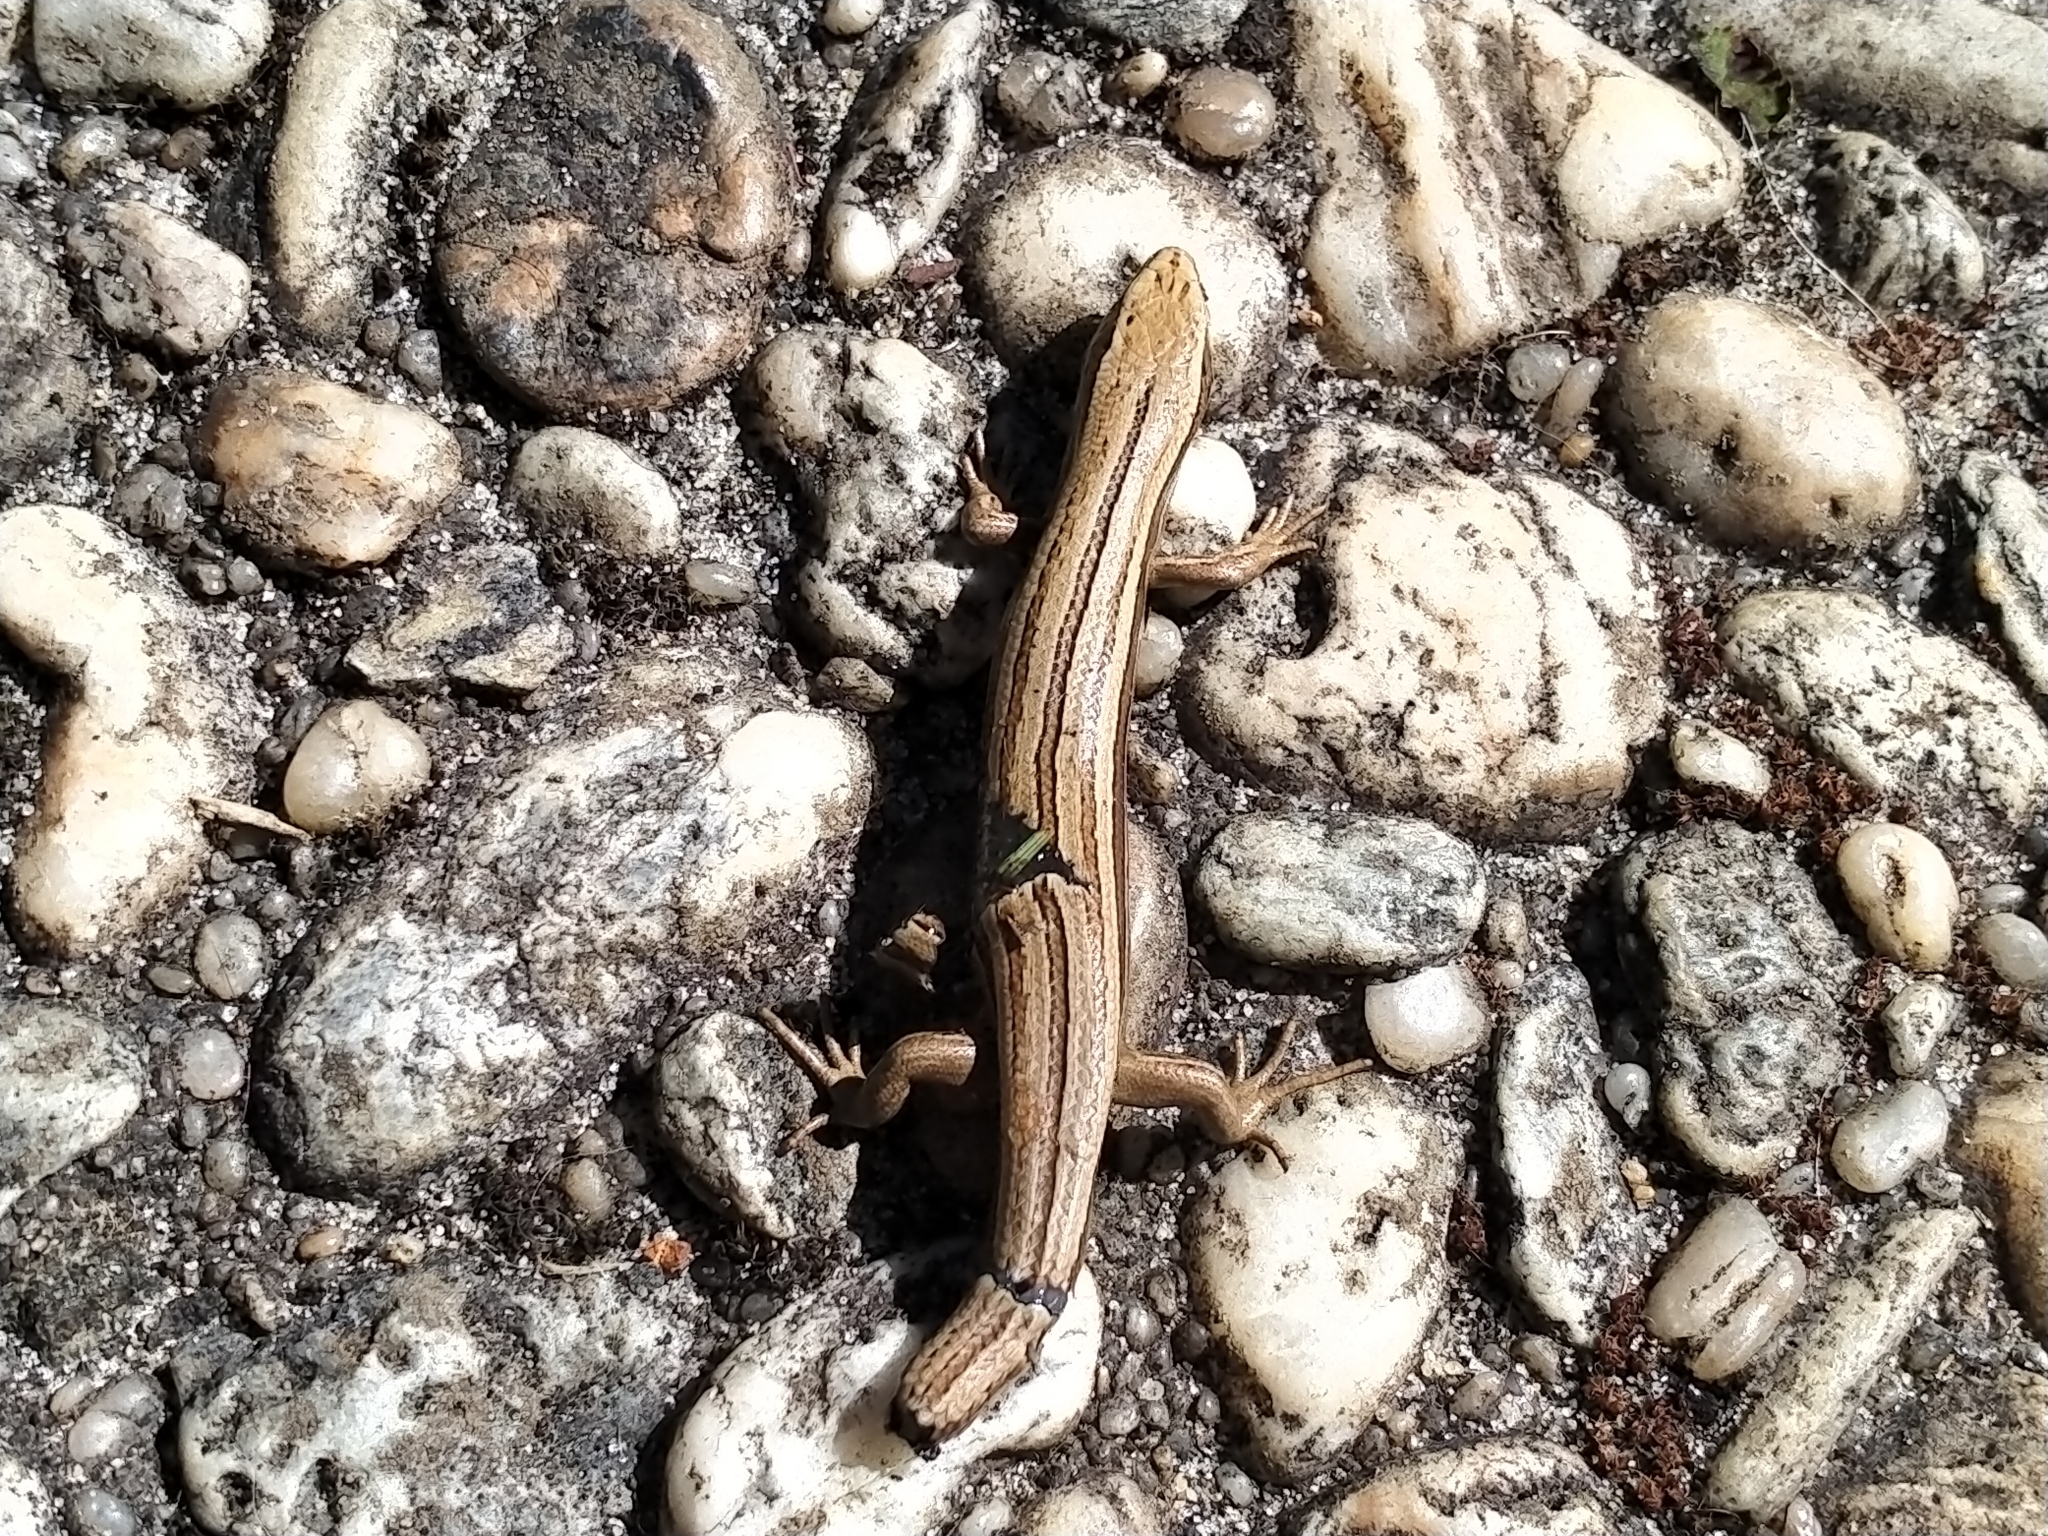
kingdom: Animalia
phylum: Chordata
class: Squamata
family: Scincidae
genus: Oligosoma
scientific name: Oligosoma polychroma
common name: Common new zealand skink
